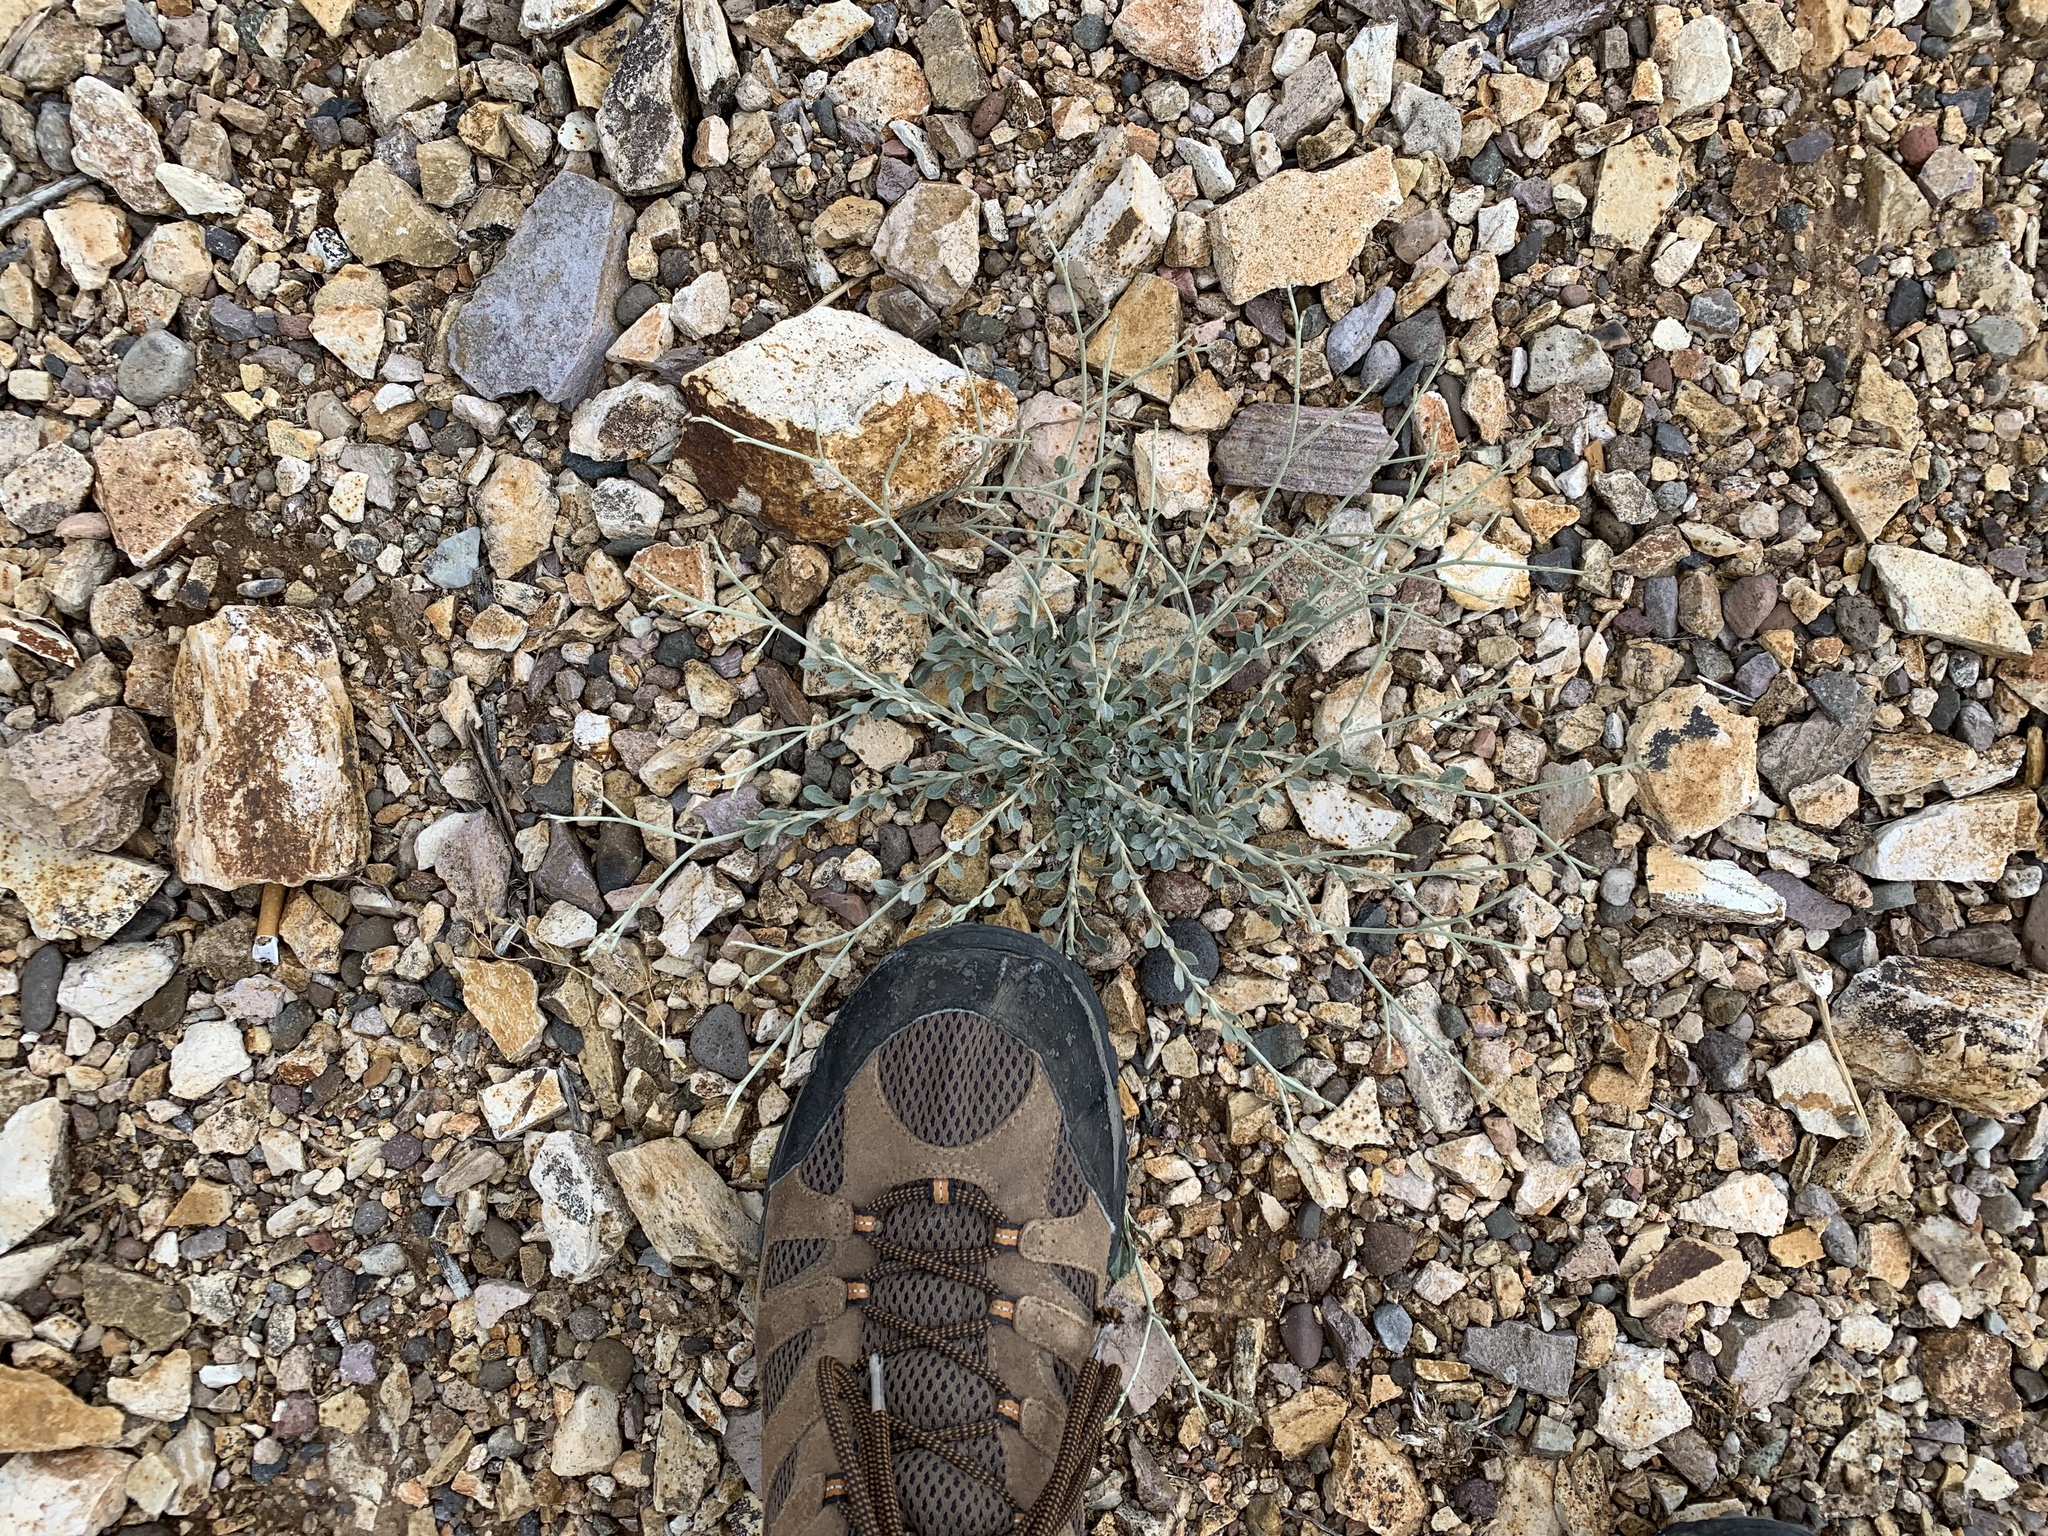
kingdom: Plantae
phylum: Tracheophyta
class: Magnoliopsida
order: Caryophyllales
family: Polygonaceae
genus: Eriogonum
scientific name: Eriogonum wrightii
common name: Bastard-sage
